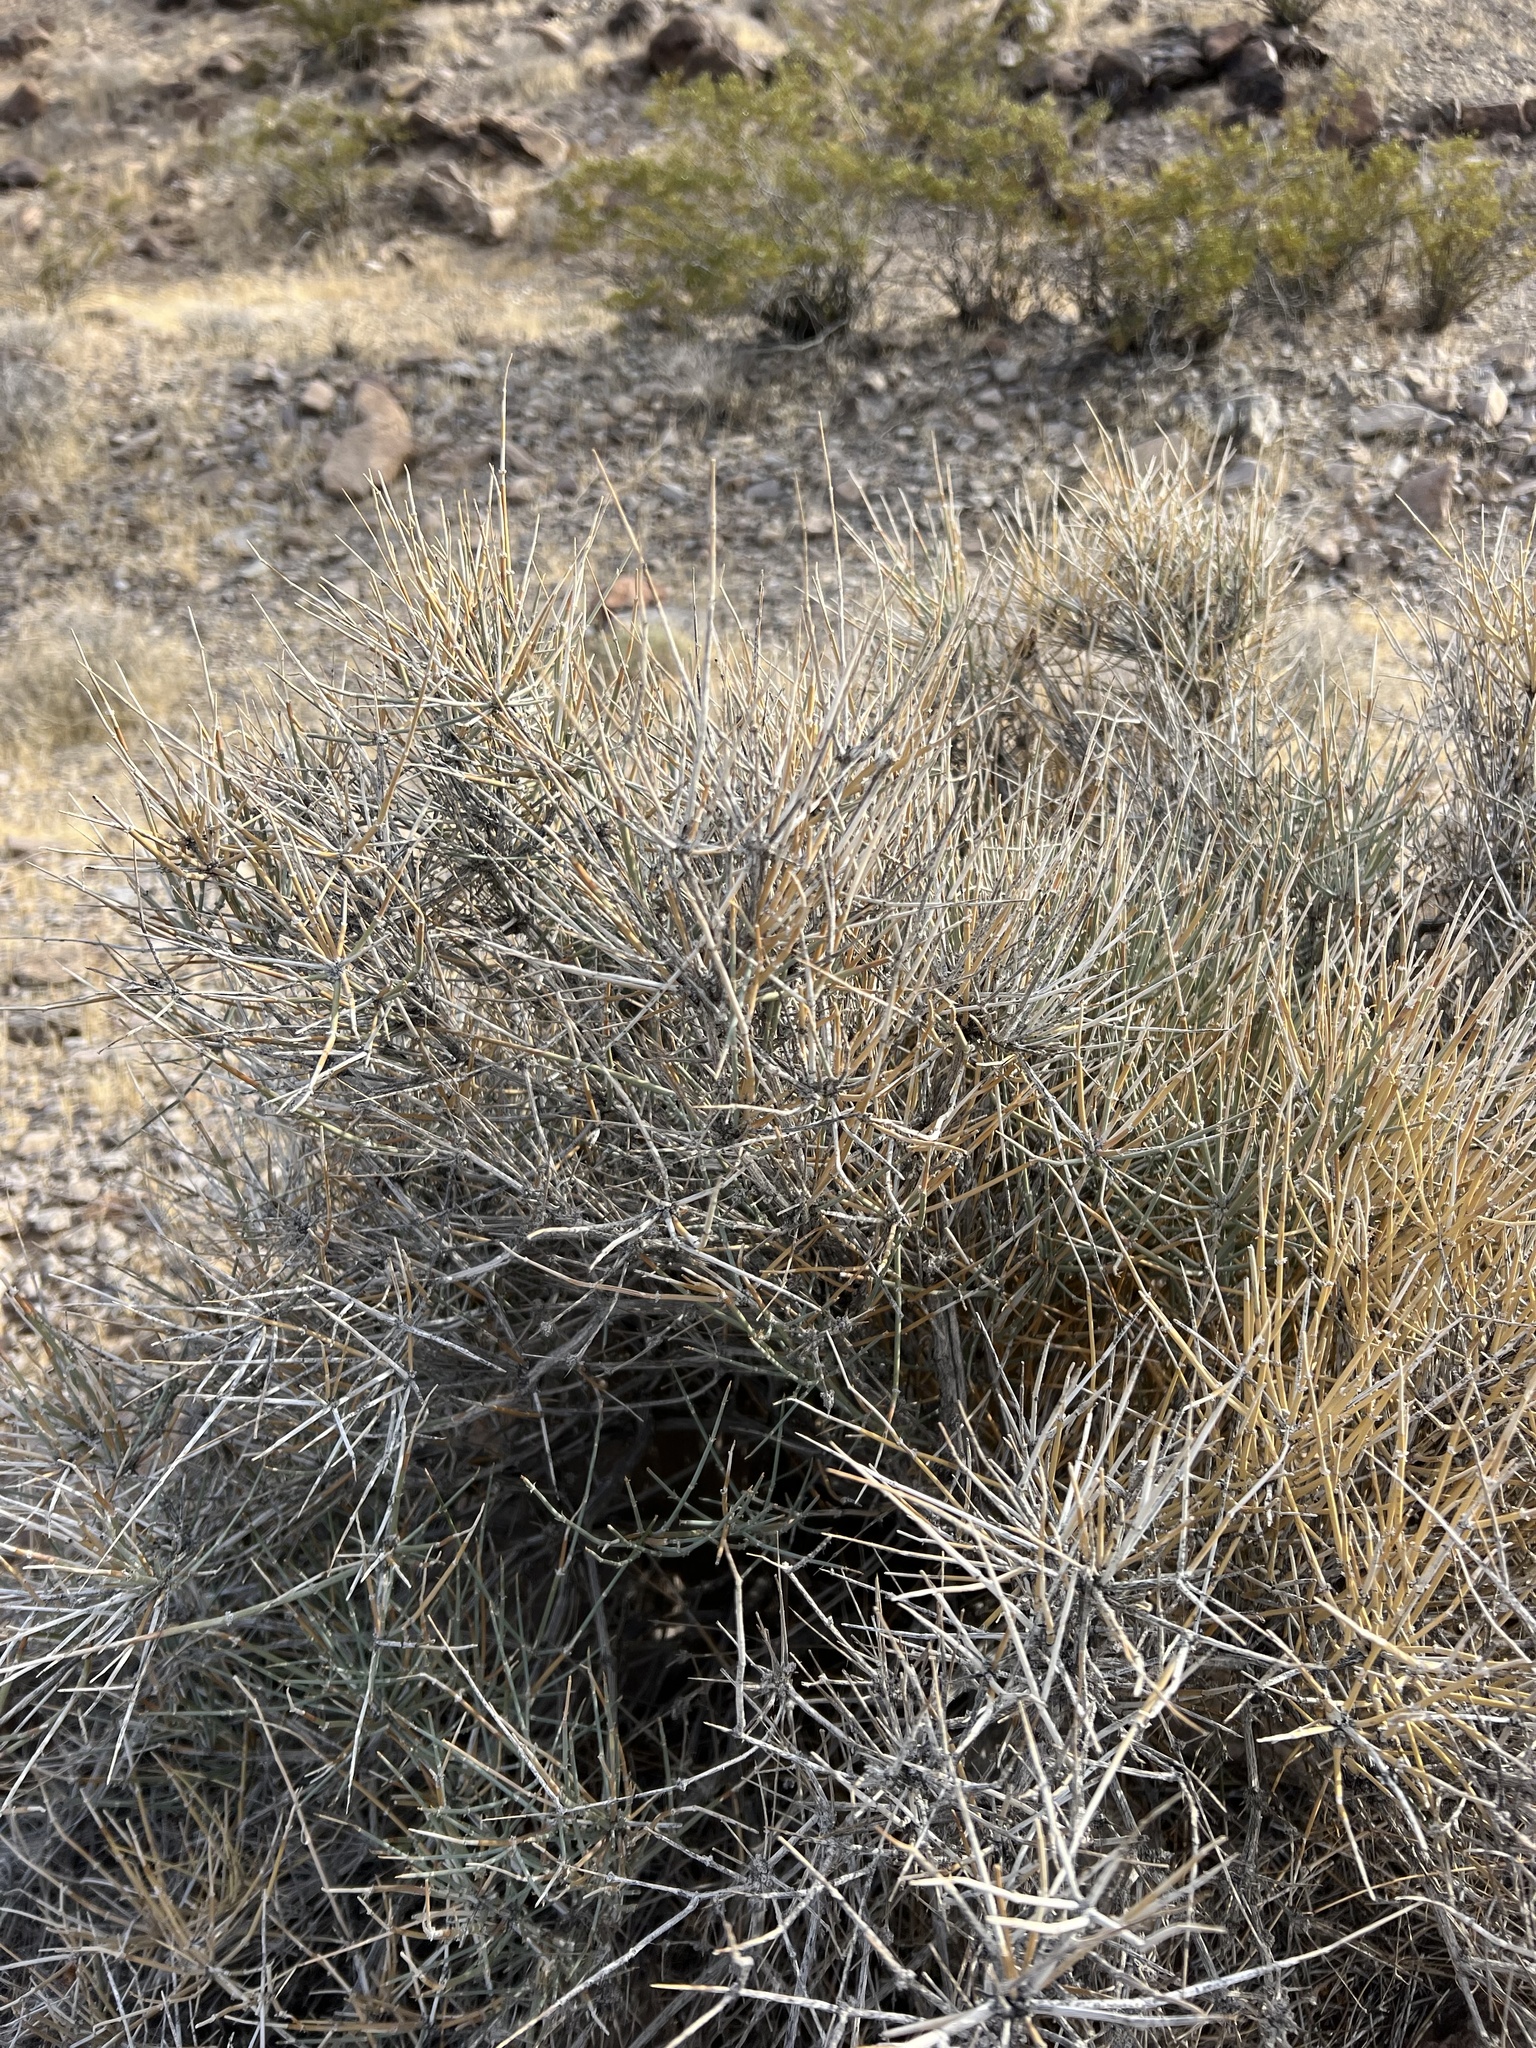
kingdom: Plantae
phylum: Tracheophyta
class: Gnetopsida
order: Ephedrales
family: Ephedraceae
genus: Ephedra
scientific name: Ephedra nevadensis
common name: Gray ephedra
